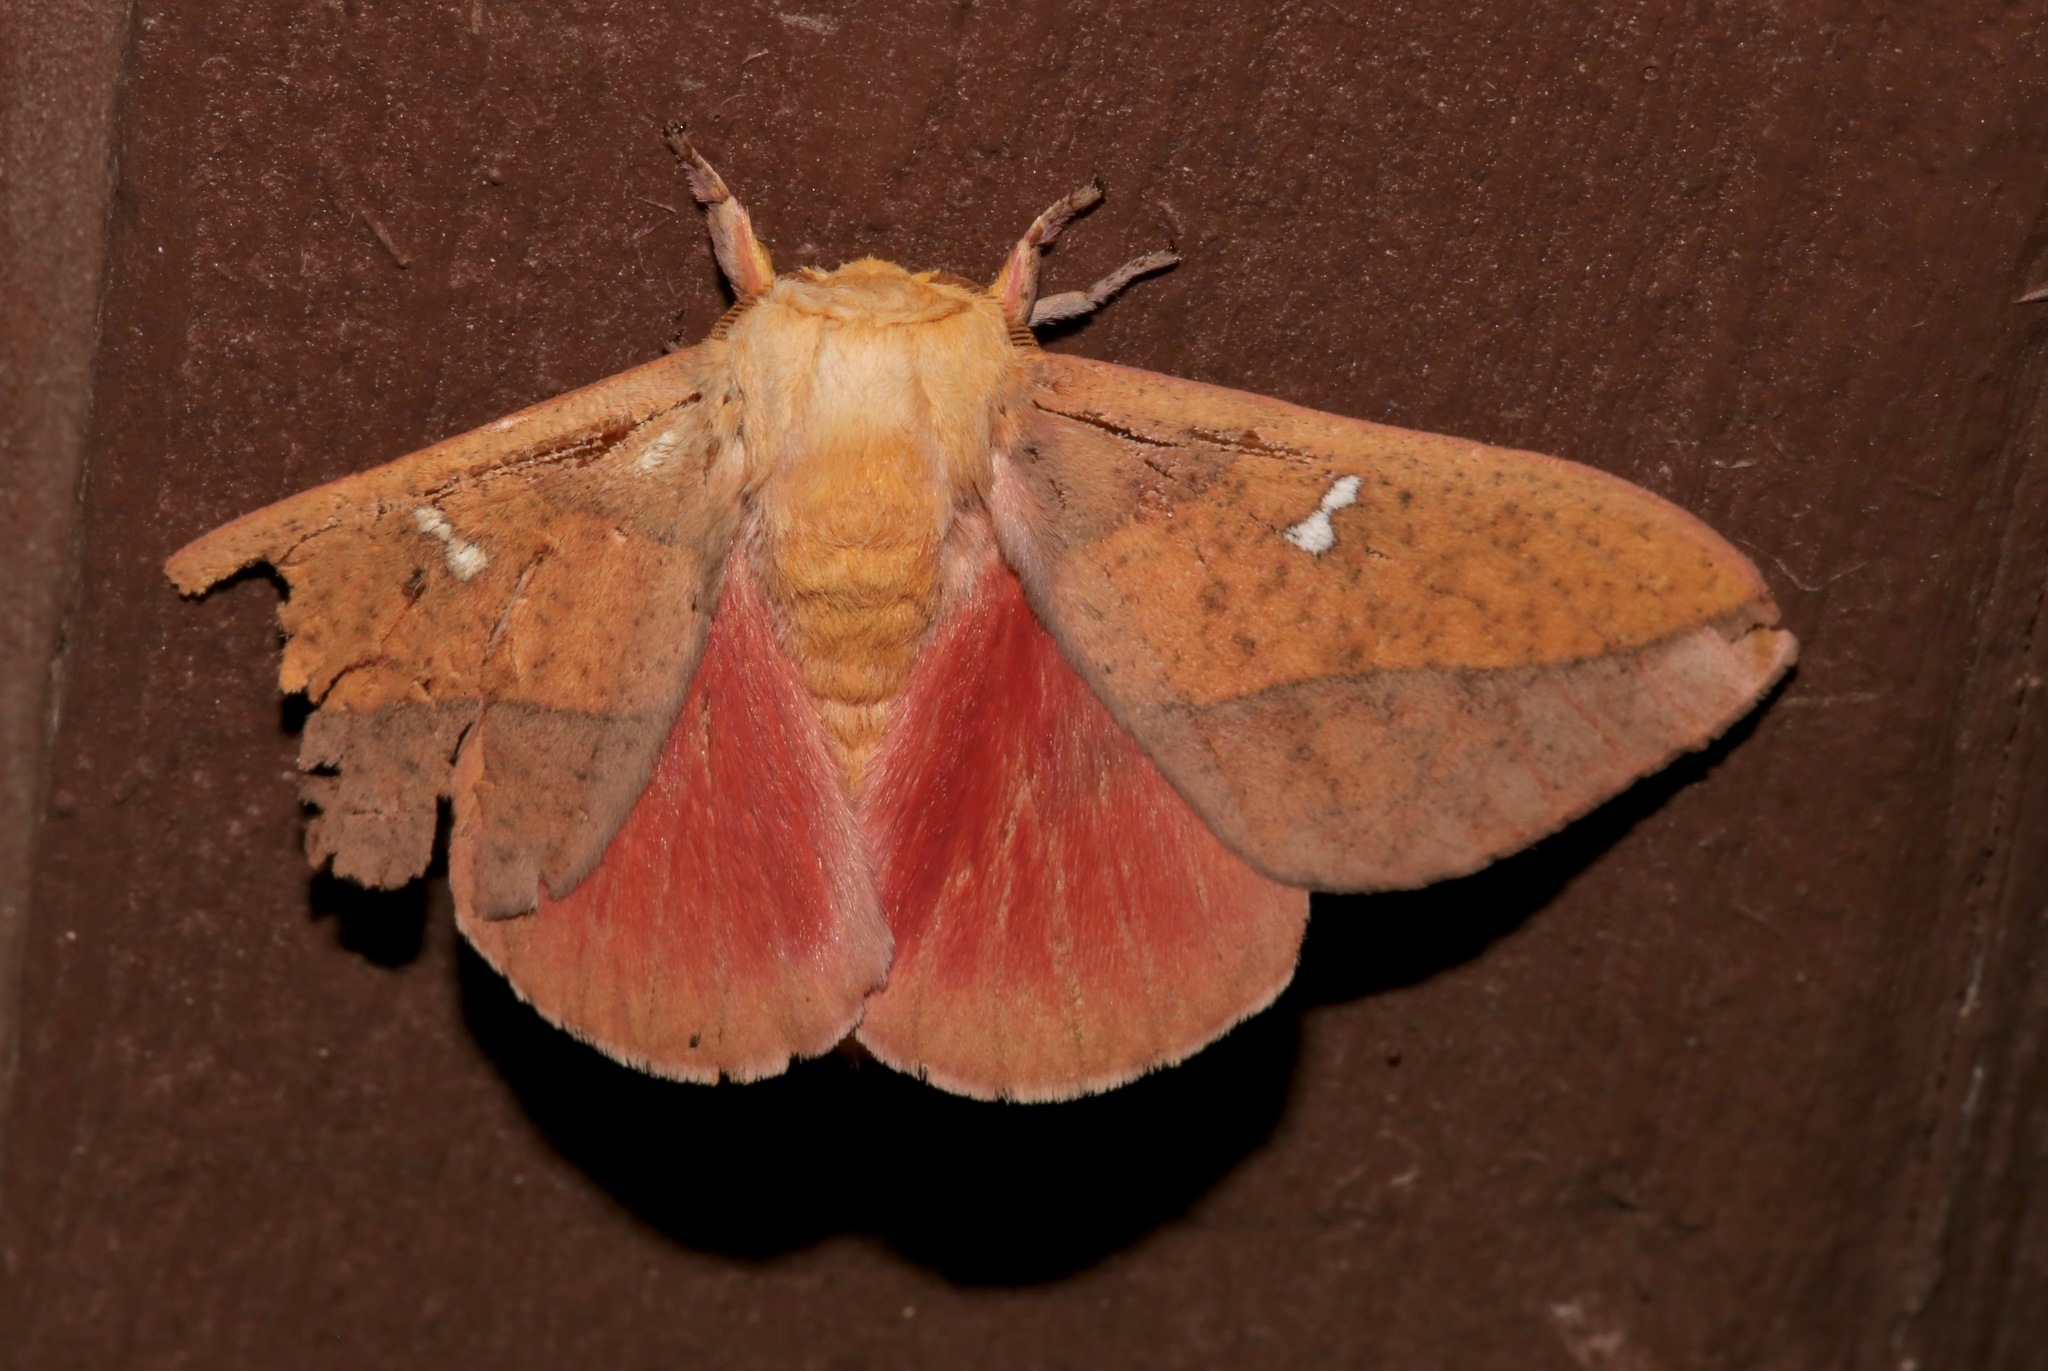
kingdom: Animalia
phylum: Arthropoda
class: Insecta
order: Lepidoptera
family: Saturniidae
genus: Syssphinx
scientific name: Syssphinx montana
